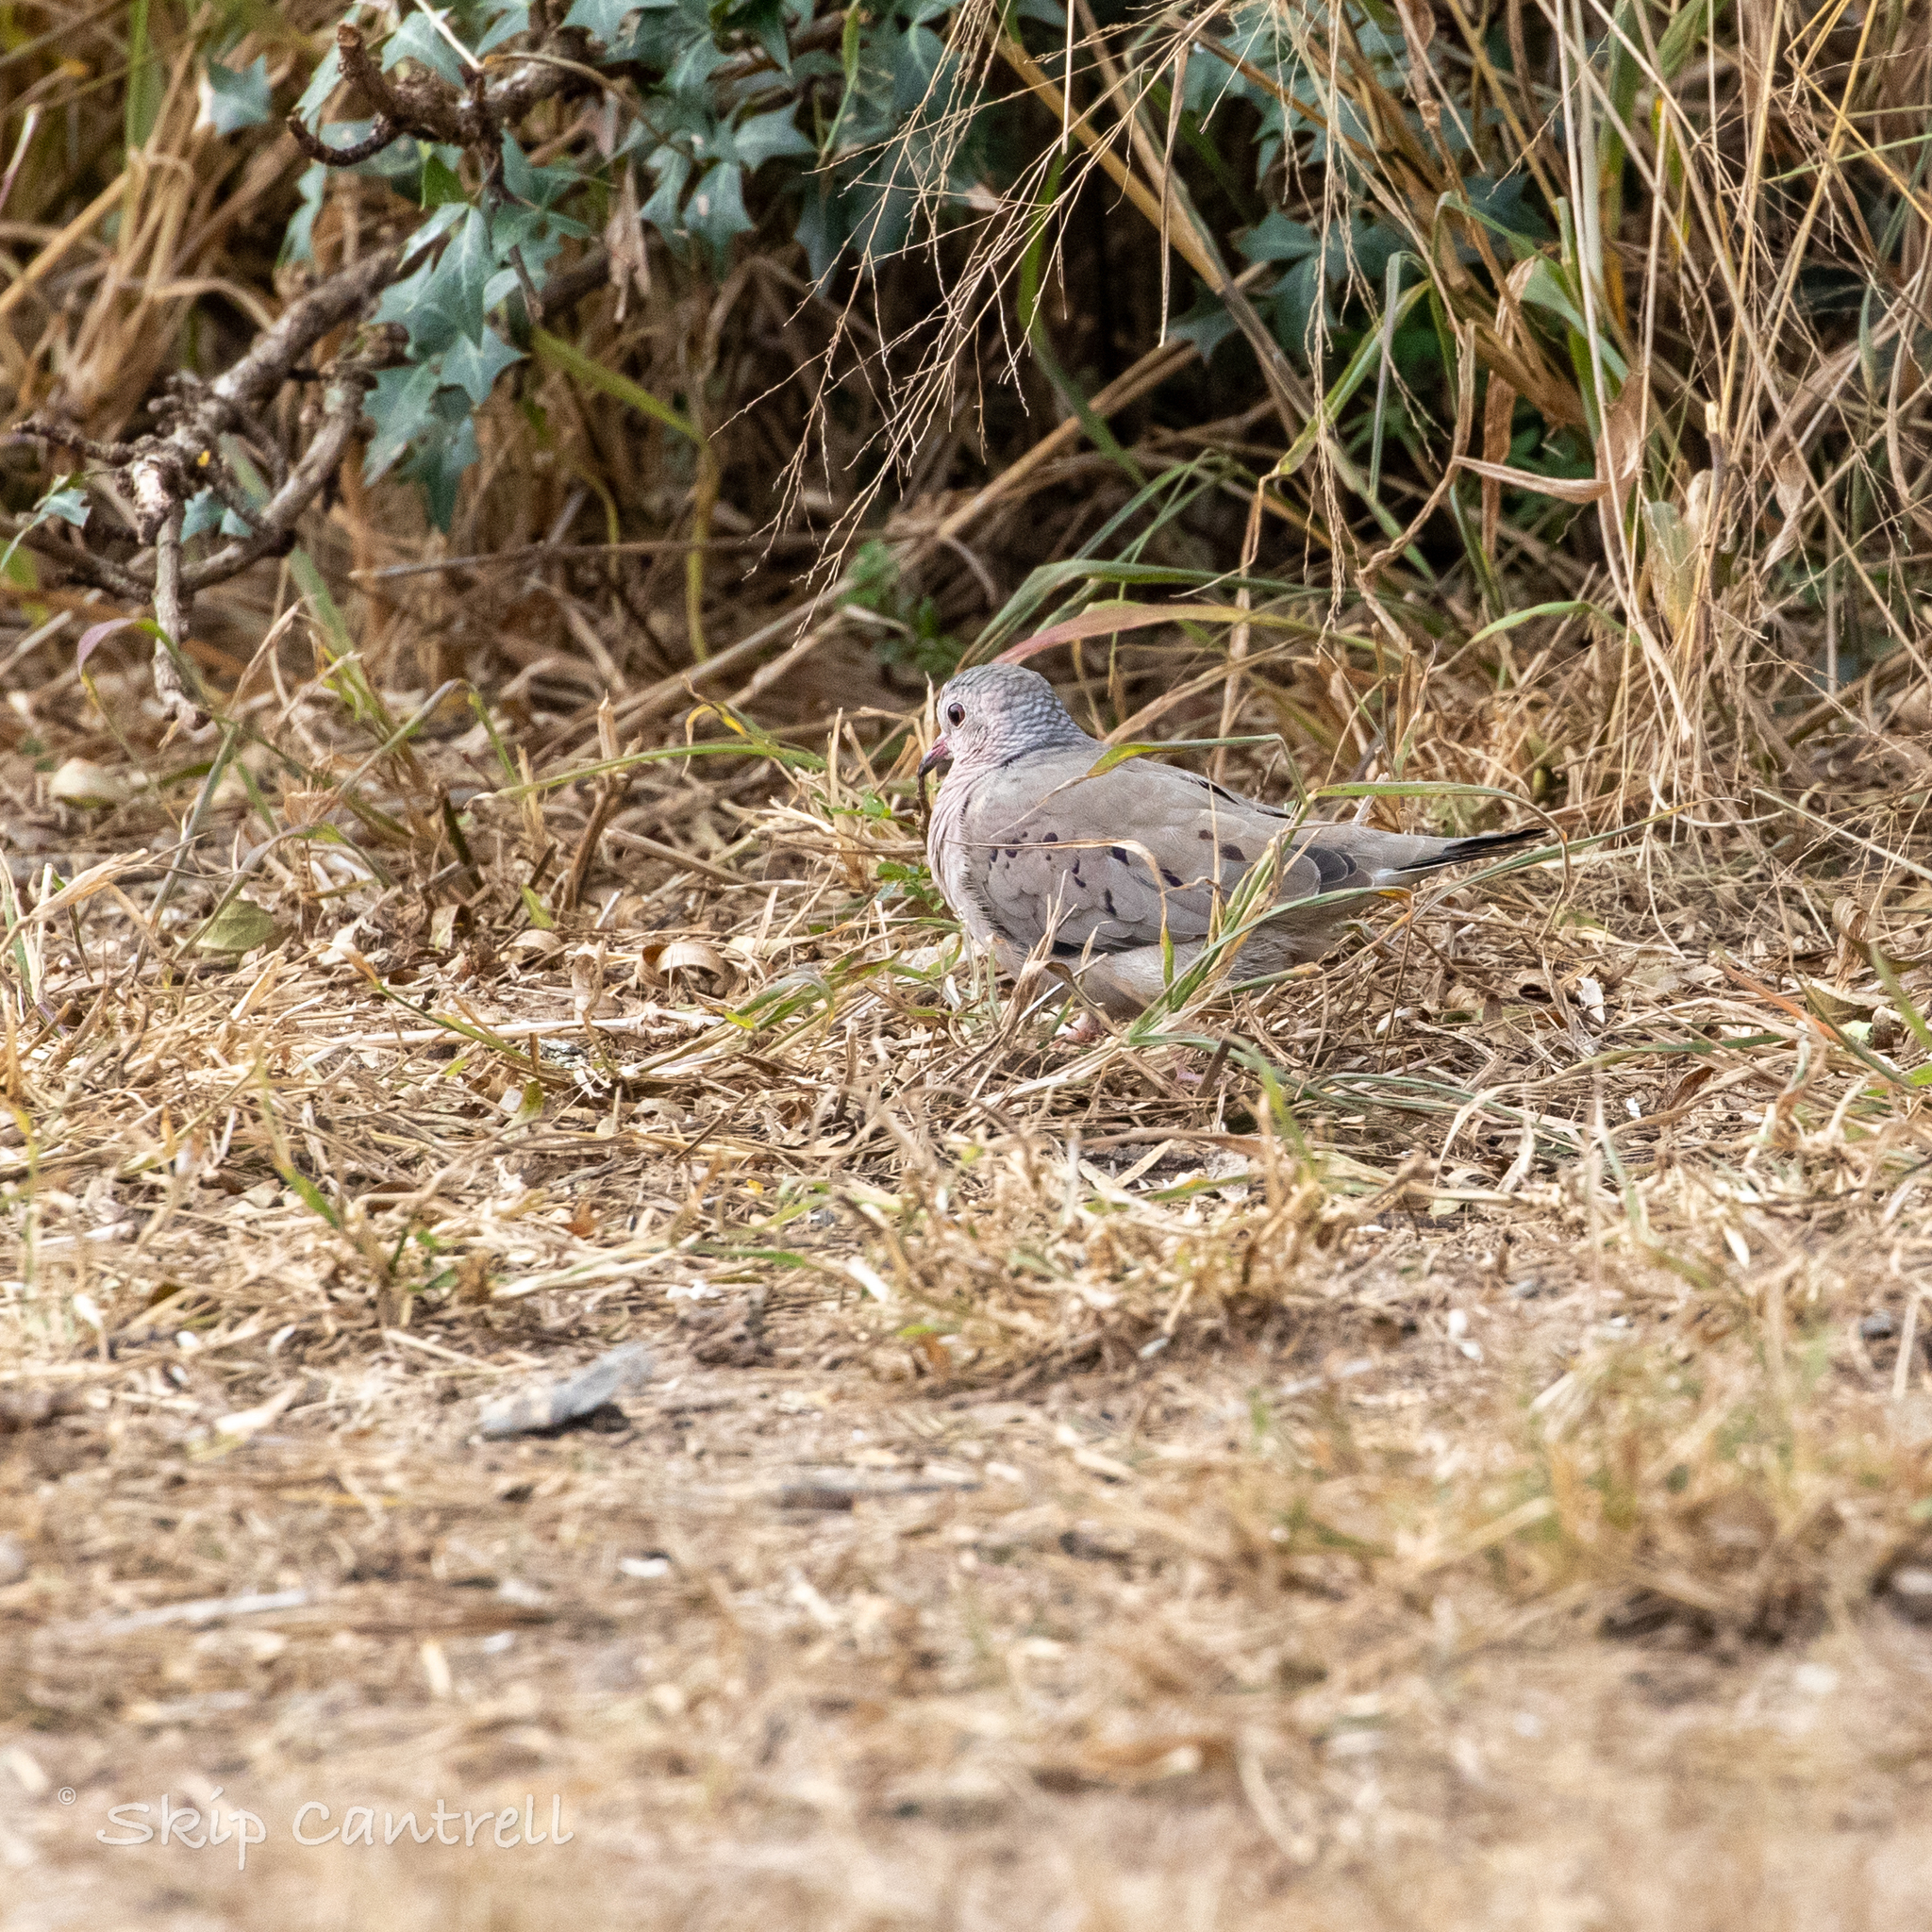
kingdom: Animalia
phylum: Chordata
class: Aves
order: Columbiformes
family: Columbidae
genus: Columbina
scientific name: Columbina passerina
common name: Common ground-dove
